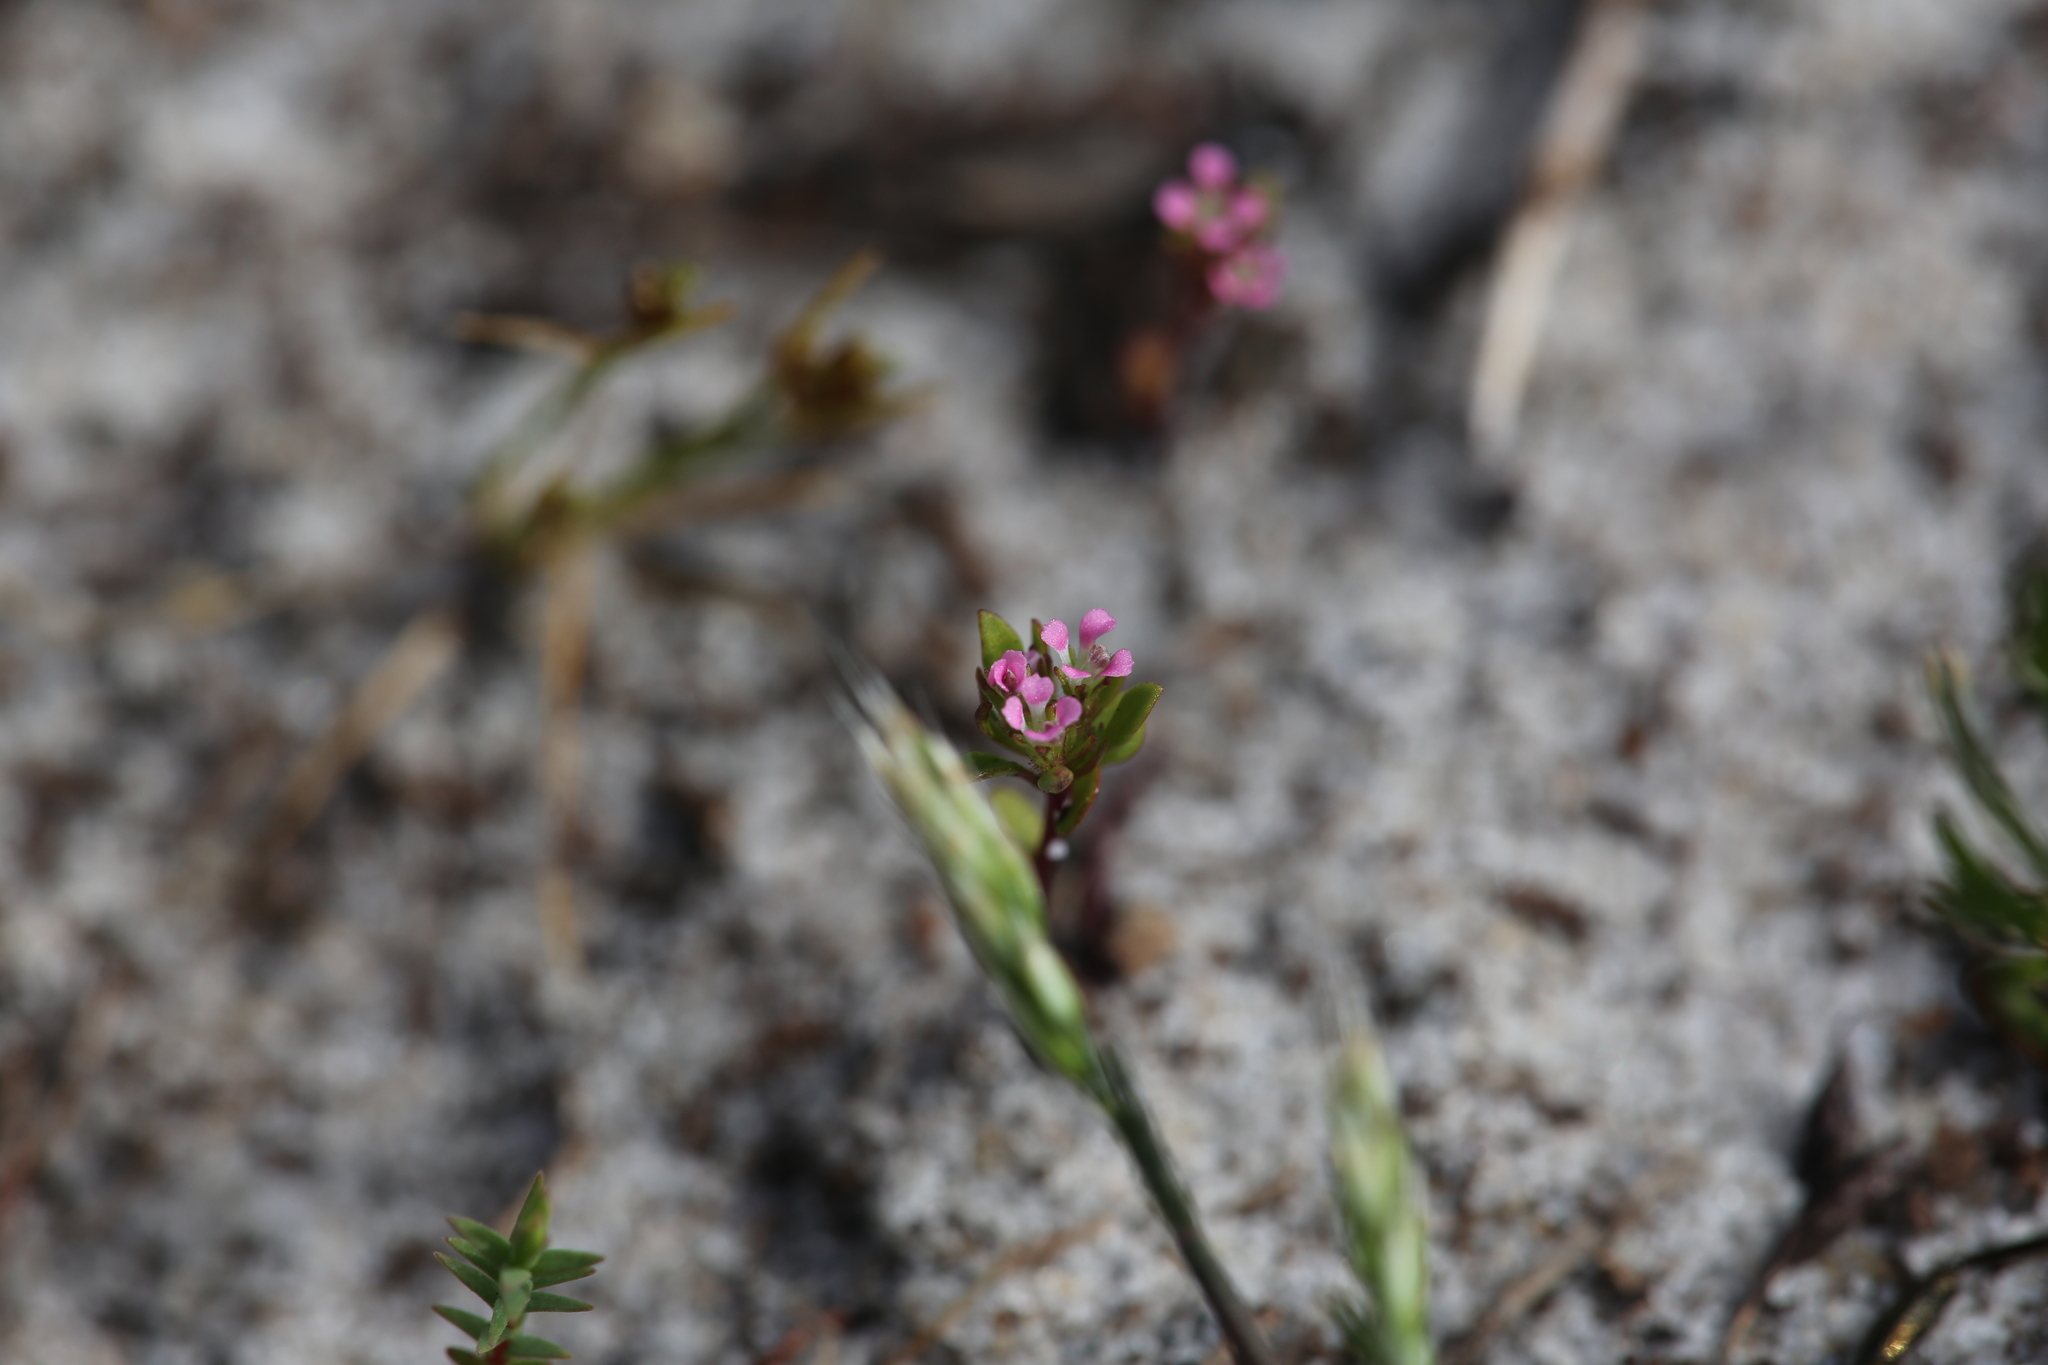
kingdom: Plantae
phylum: Tracheophyta
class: Magnoliopsida
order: Asterales
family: Stylidiaceae
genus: Levenhookia
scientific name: Levenhookia pusilla
